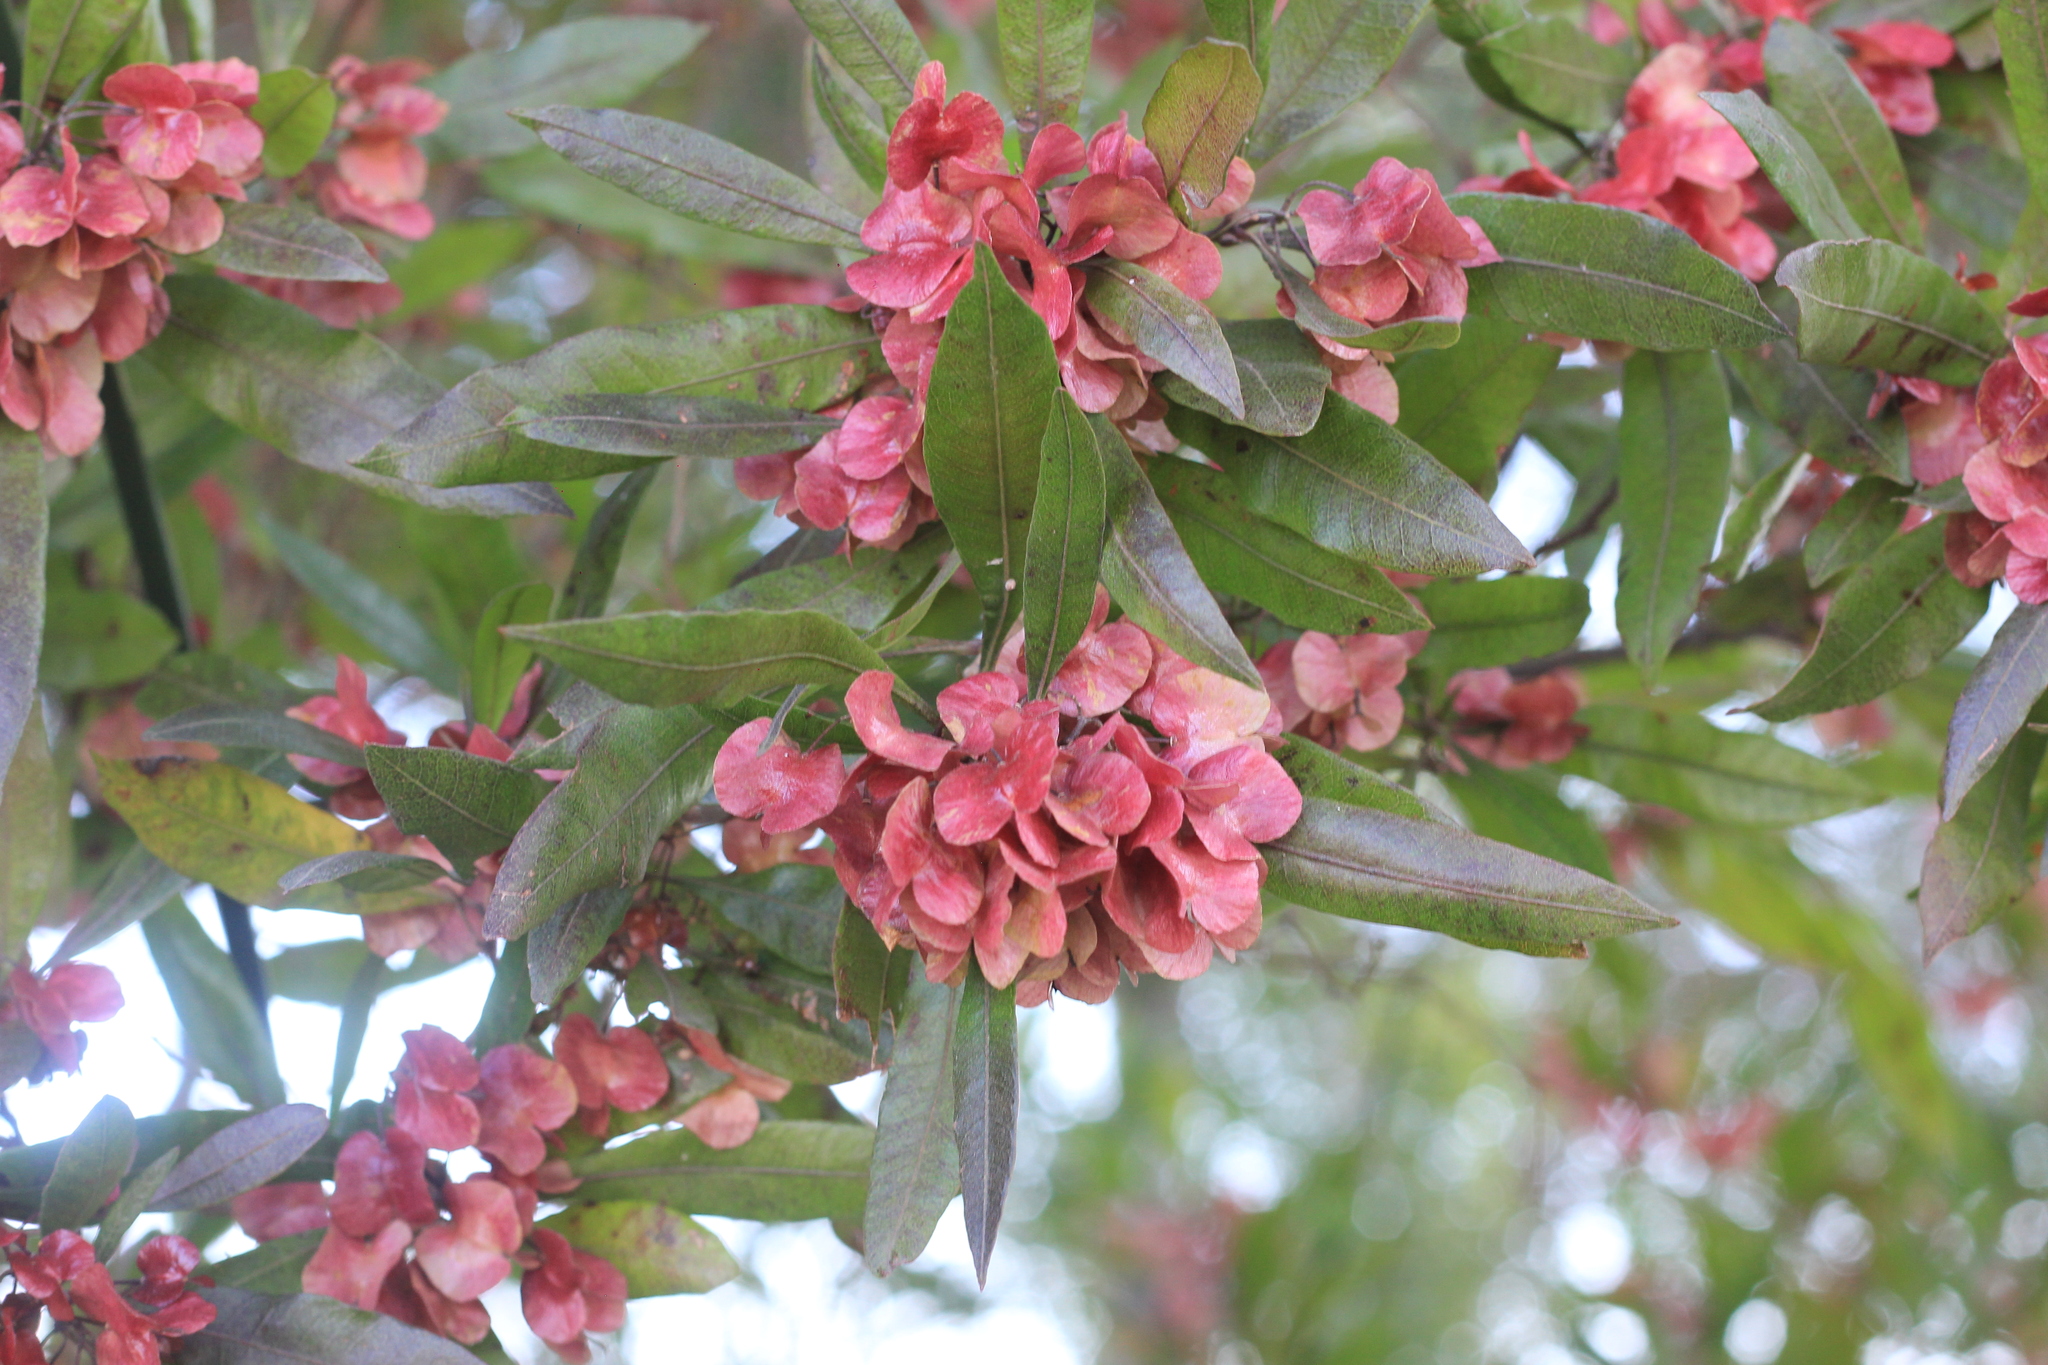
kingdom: Plantae
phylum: Tracheophyta
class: Magnoliopsida
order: Sapindales
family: Sapindaceae
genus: Dodonaea
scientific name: Dodonaea viscosa
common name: Hopbush
